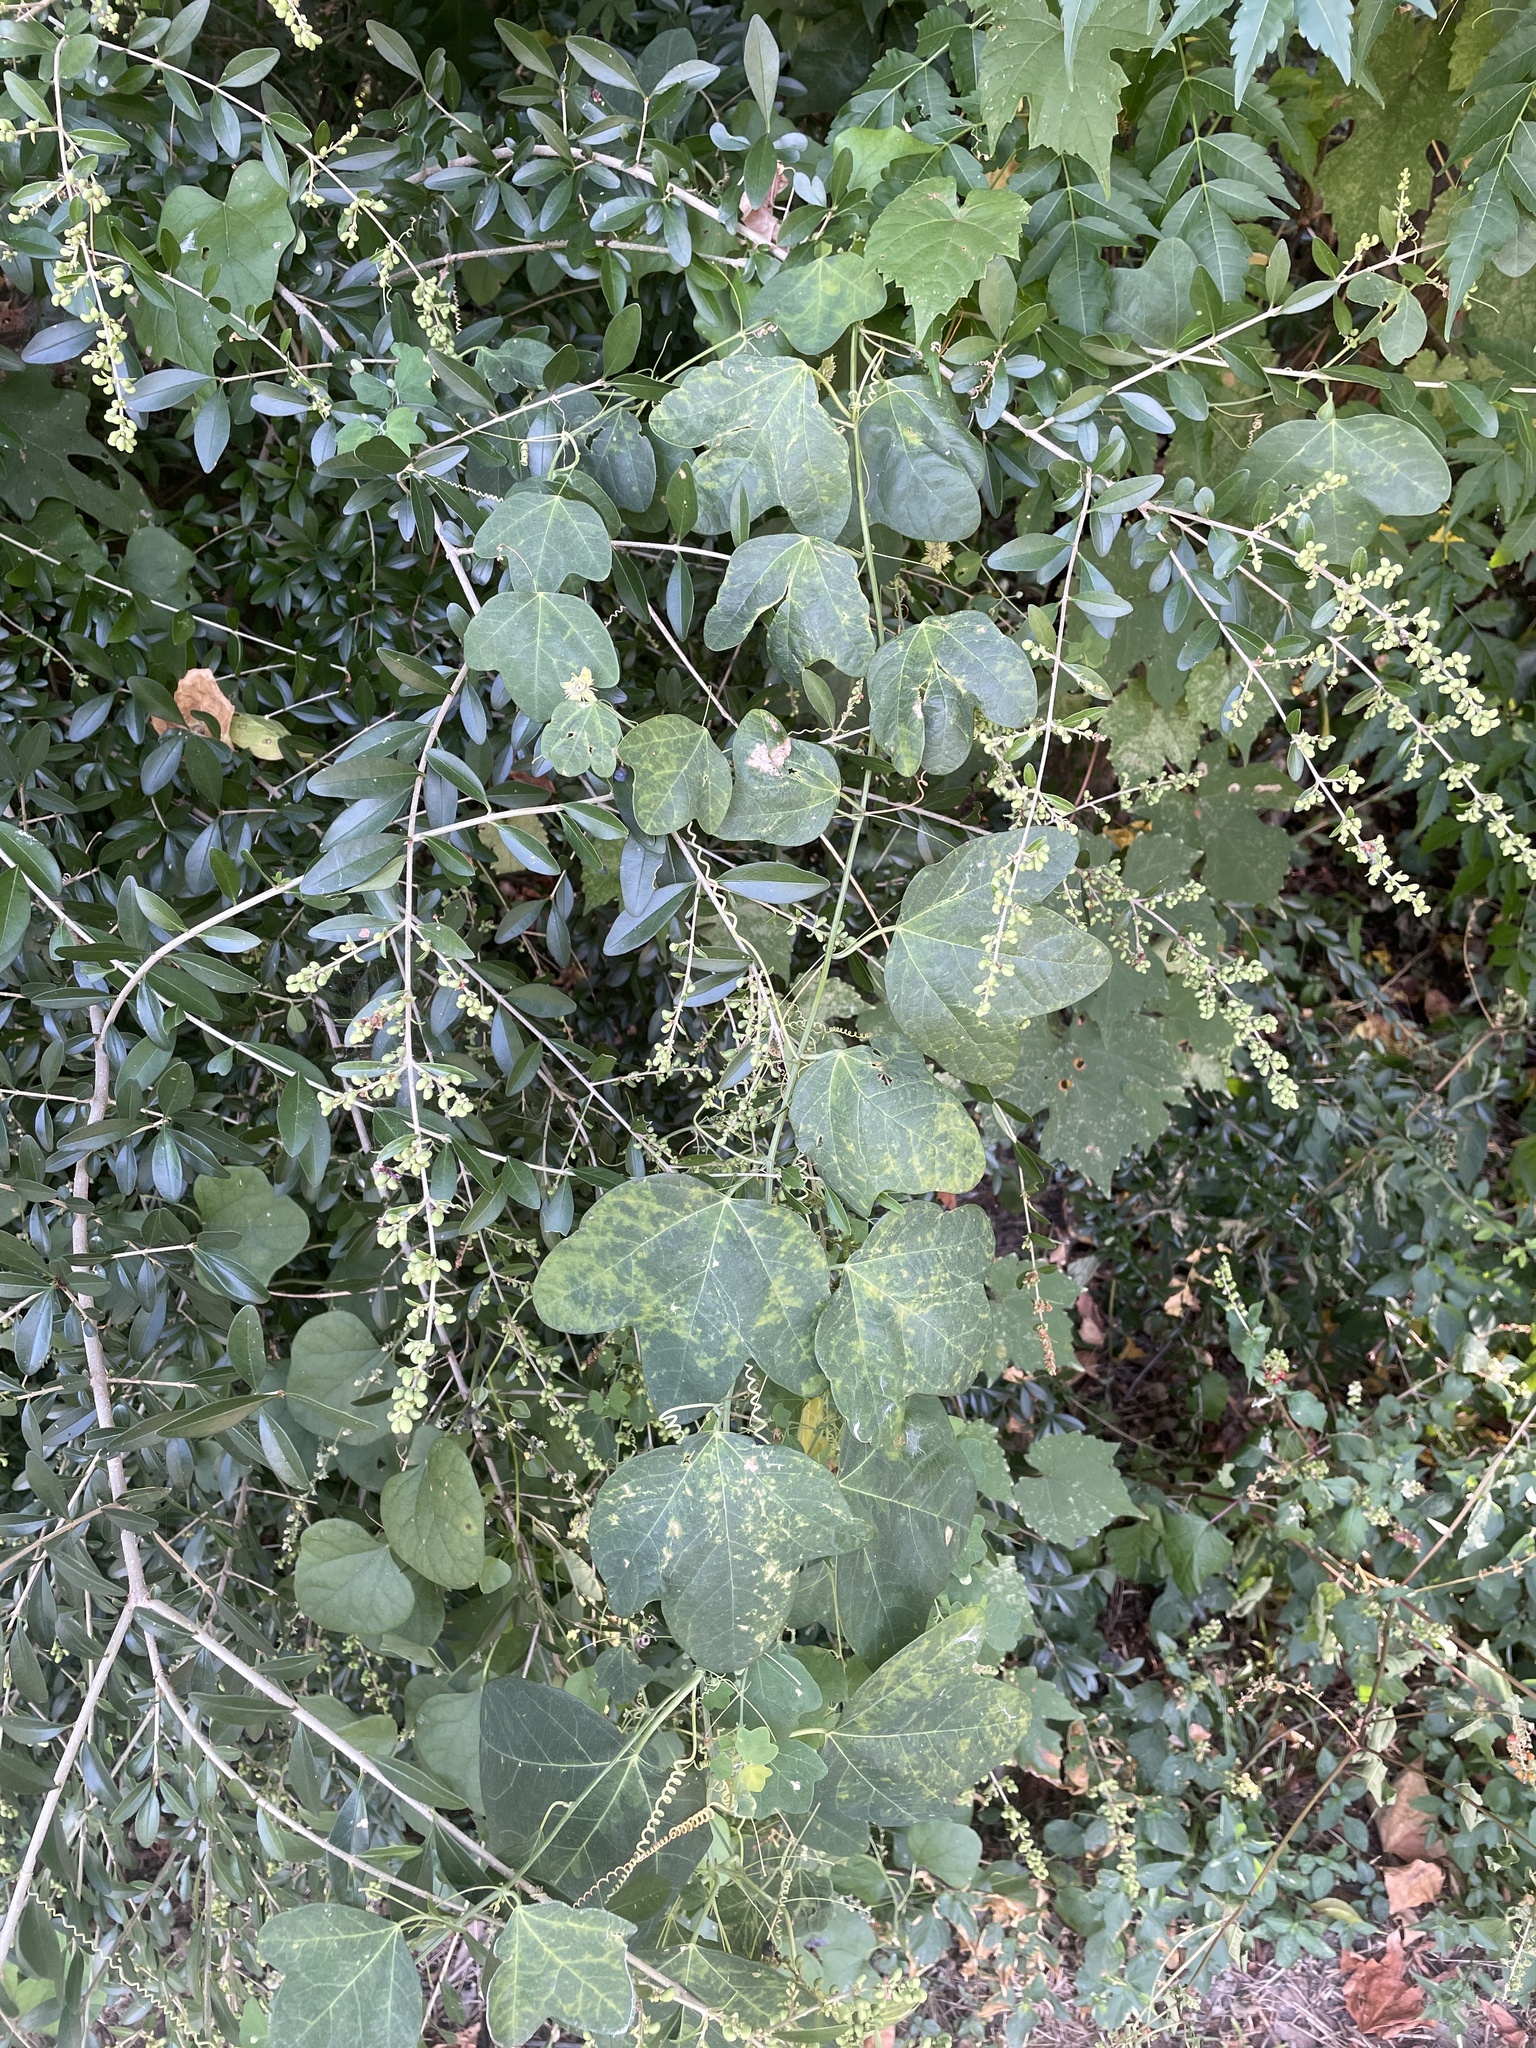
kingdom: Plantae
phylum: Tracheophyta
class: Magnoliopsida
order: Malpighiales
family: Passifloraceae
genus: Passiflora
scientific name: Passiflora lutea
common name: Yellow passionflower
